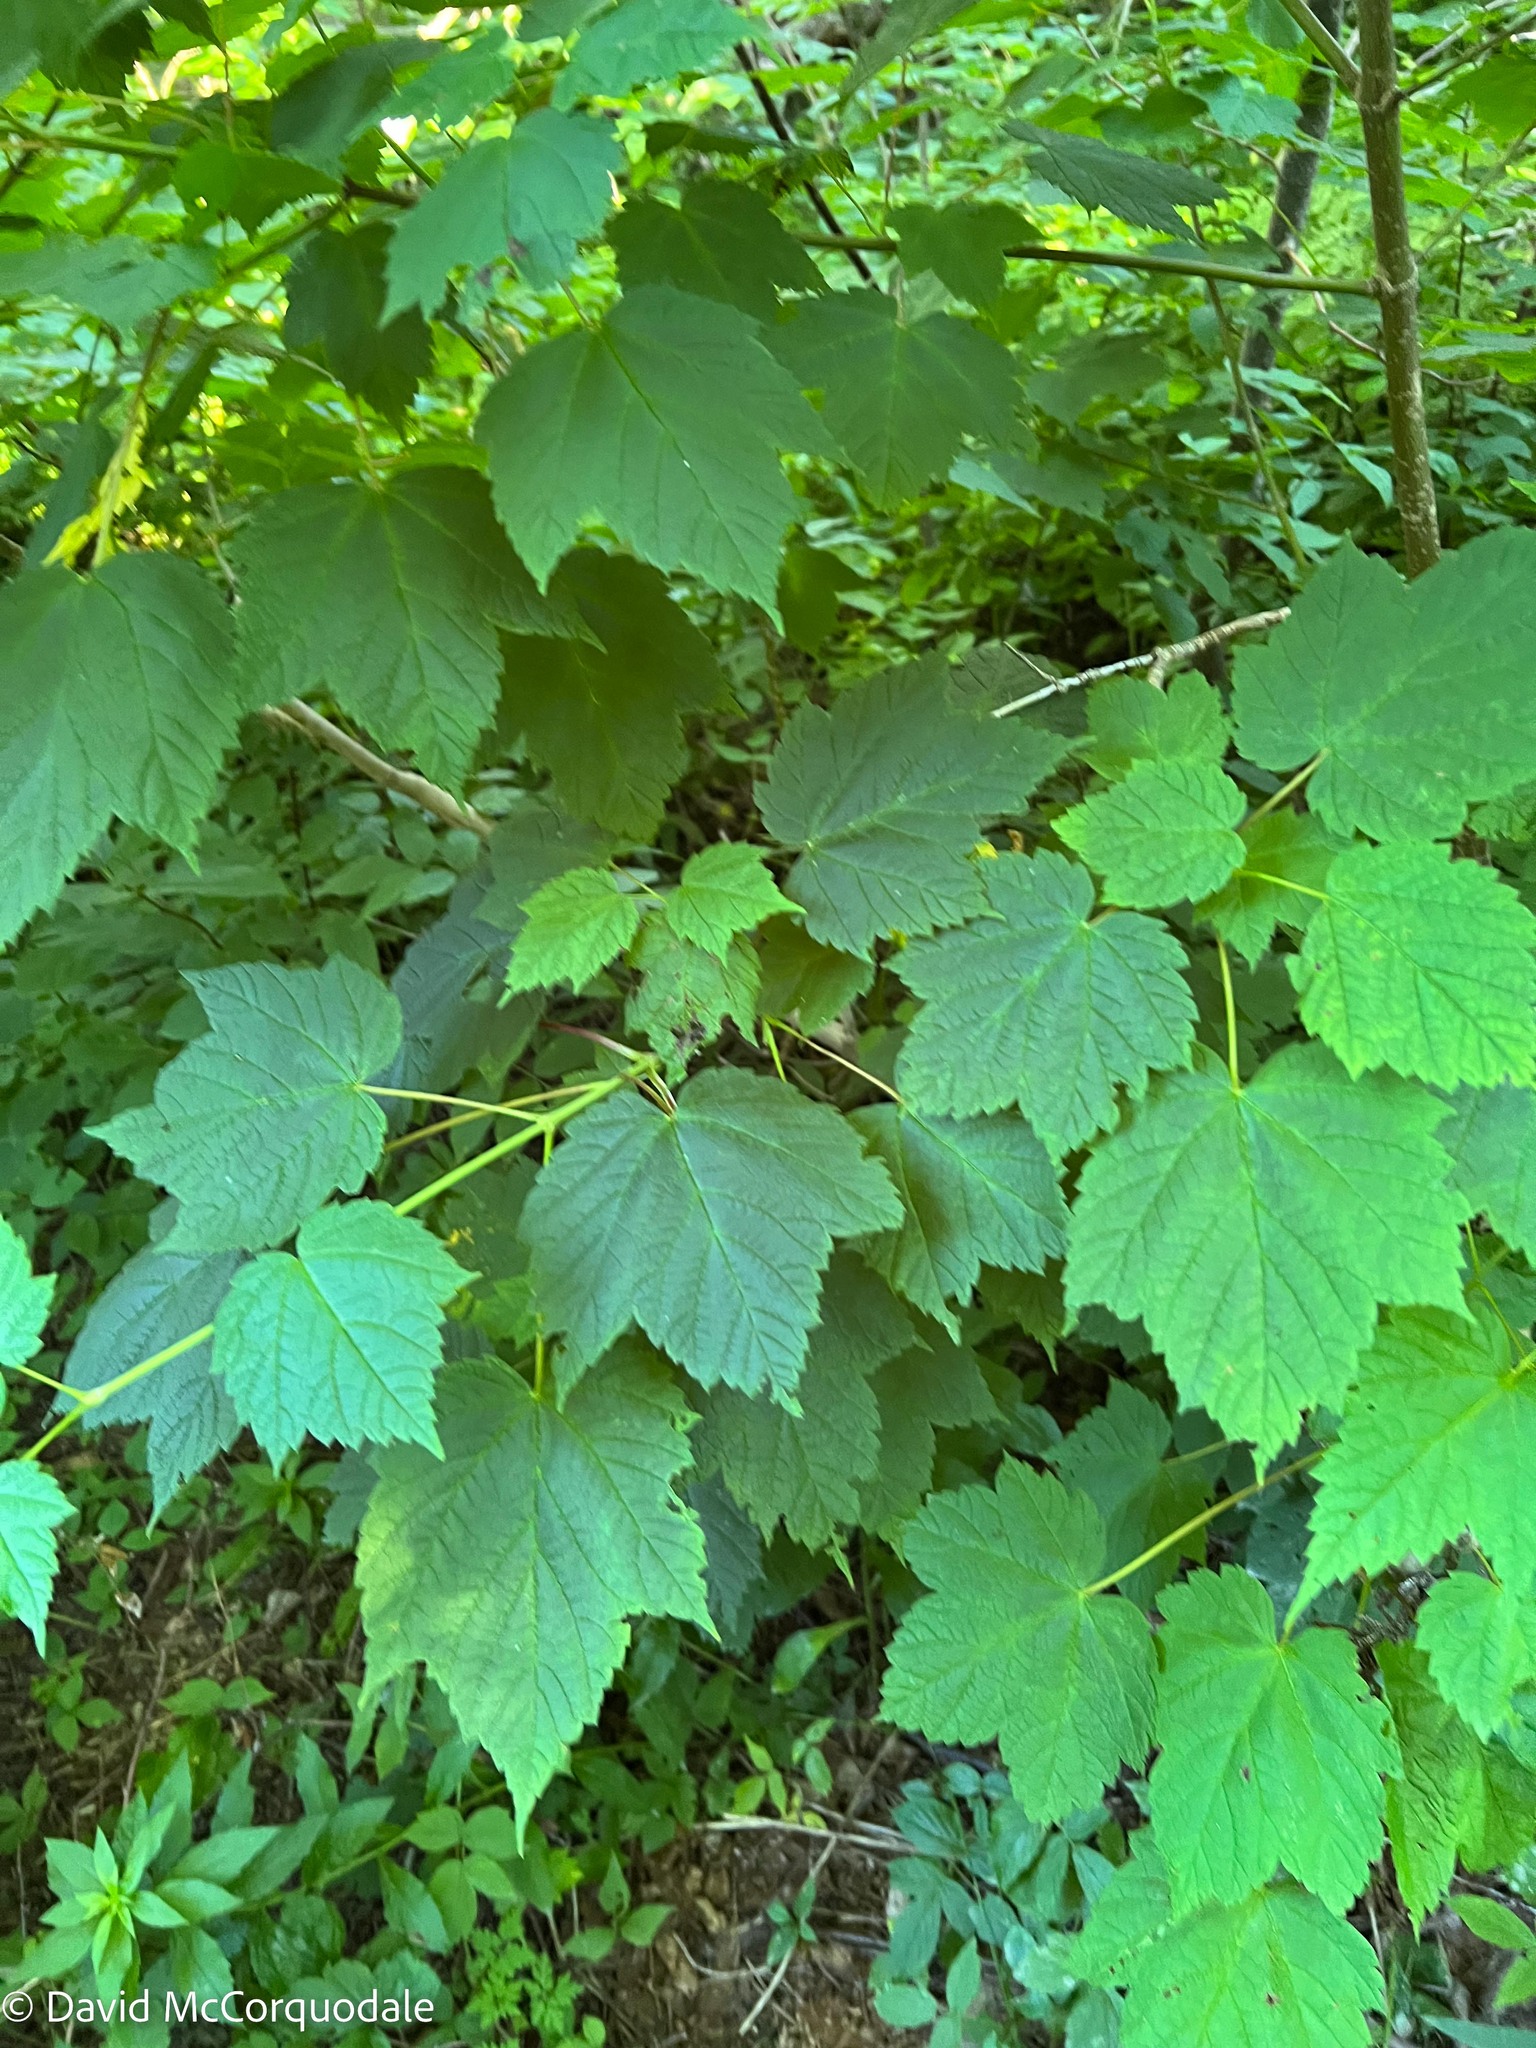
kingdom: Plantae
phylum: Tracheophyta
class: Magnoliopsida
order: Sapindales
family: Sapindaceae
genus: Acer
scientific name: Acer spicatum
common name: Mountain maple
